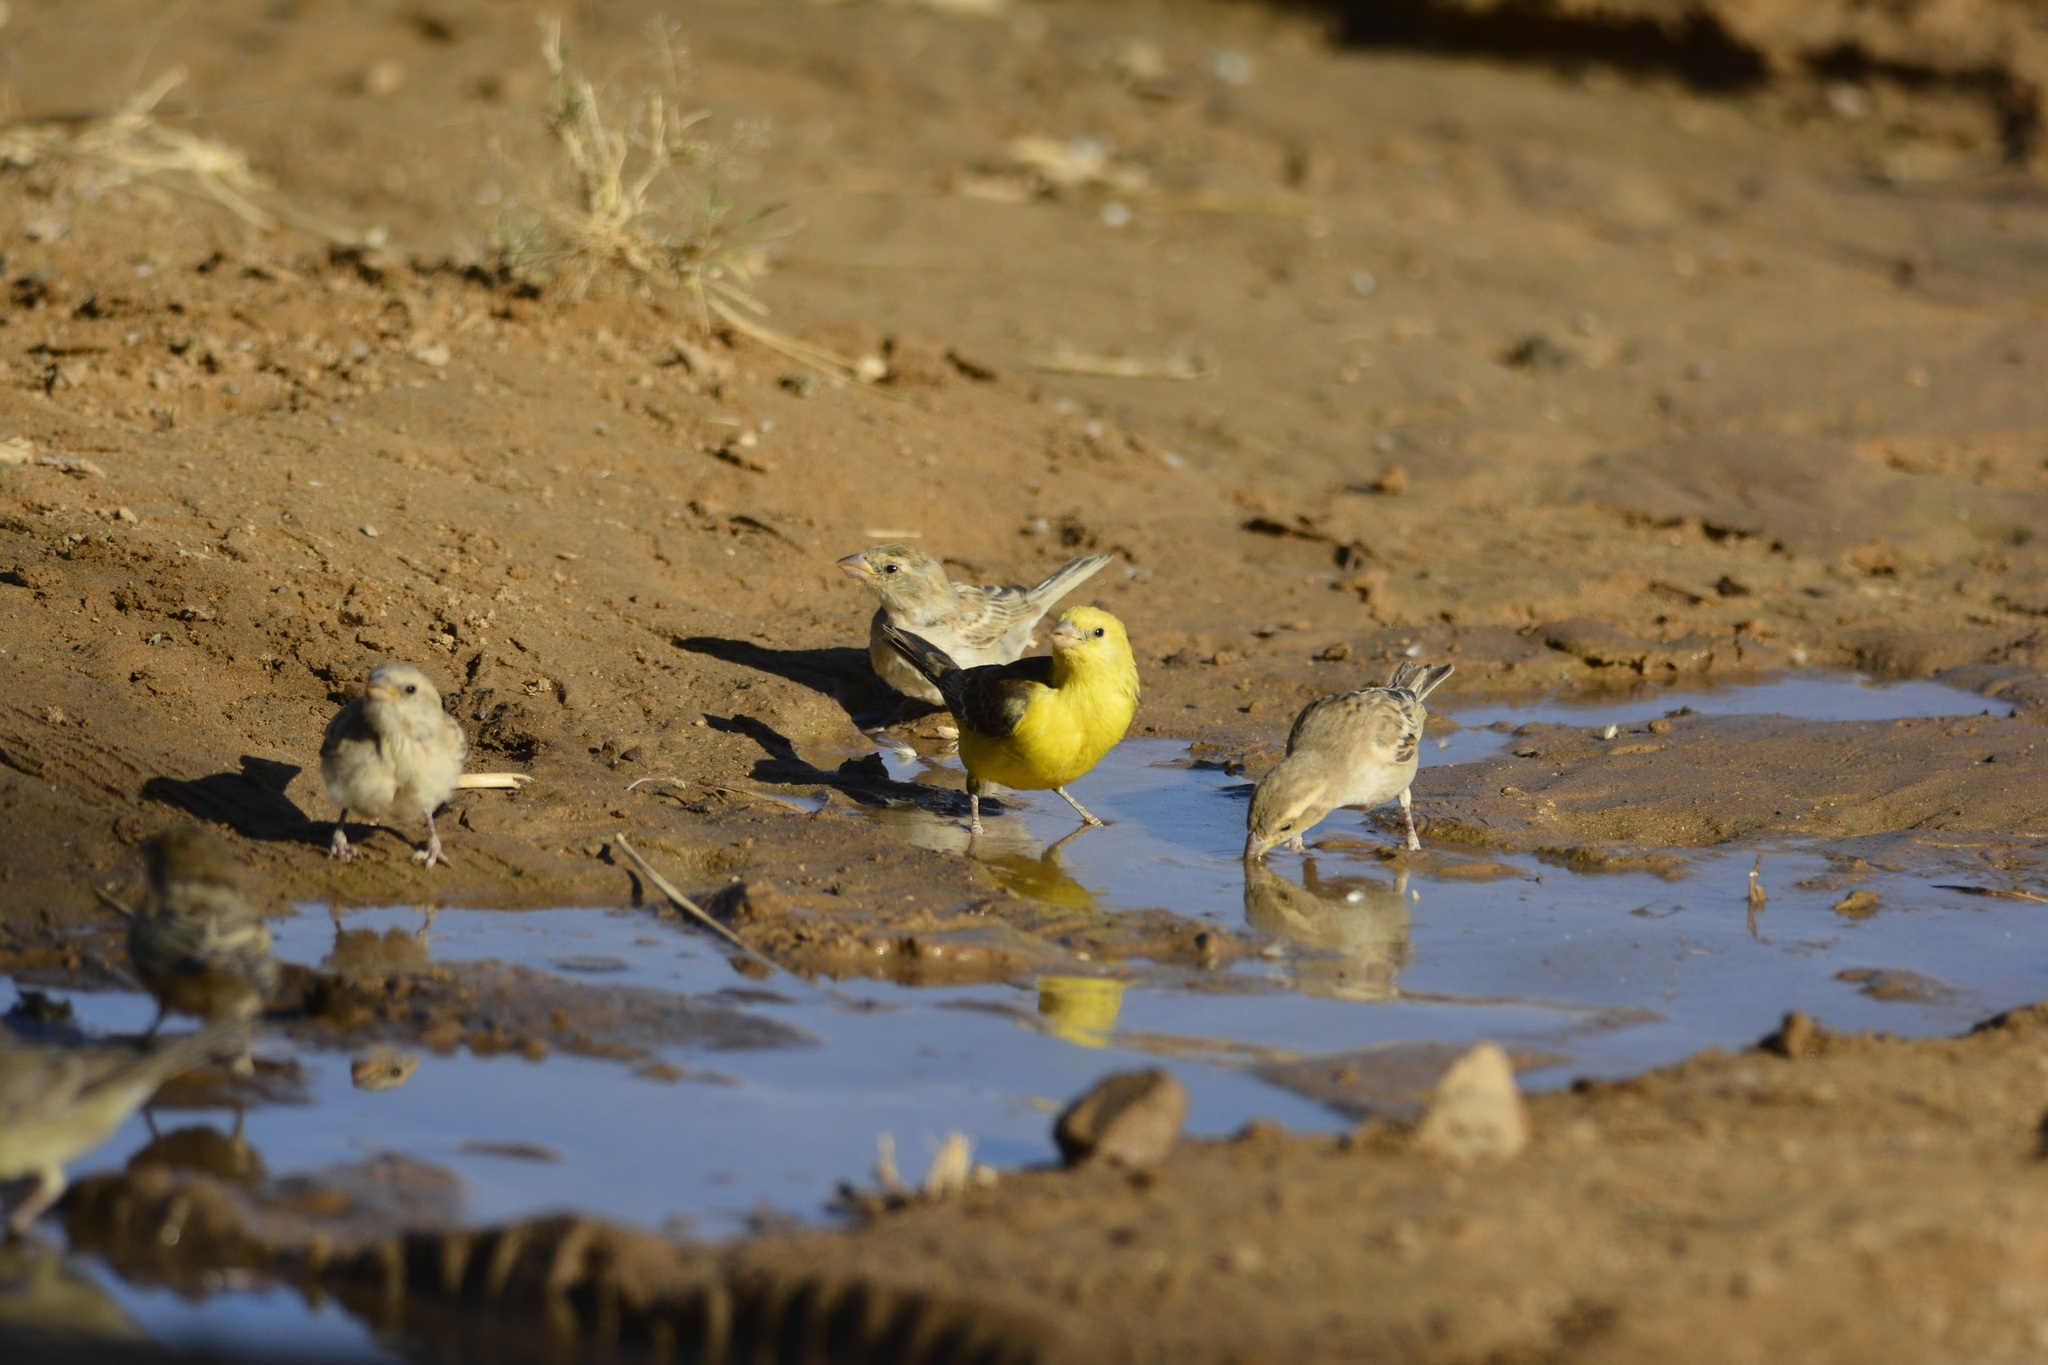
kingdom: Animalia
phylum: Chordata
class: Aves
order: Passeriformes
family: Passeridae
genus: Passer
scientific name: Passer luteus
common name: Sudan golden sparrow
